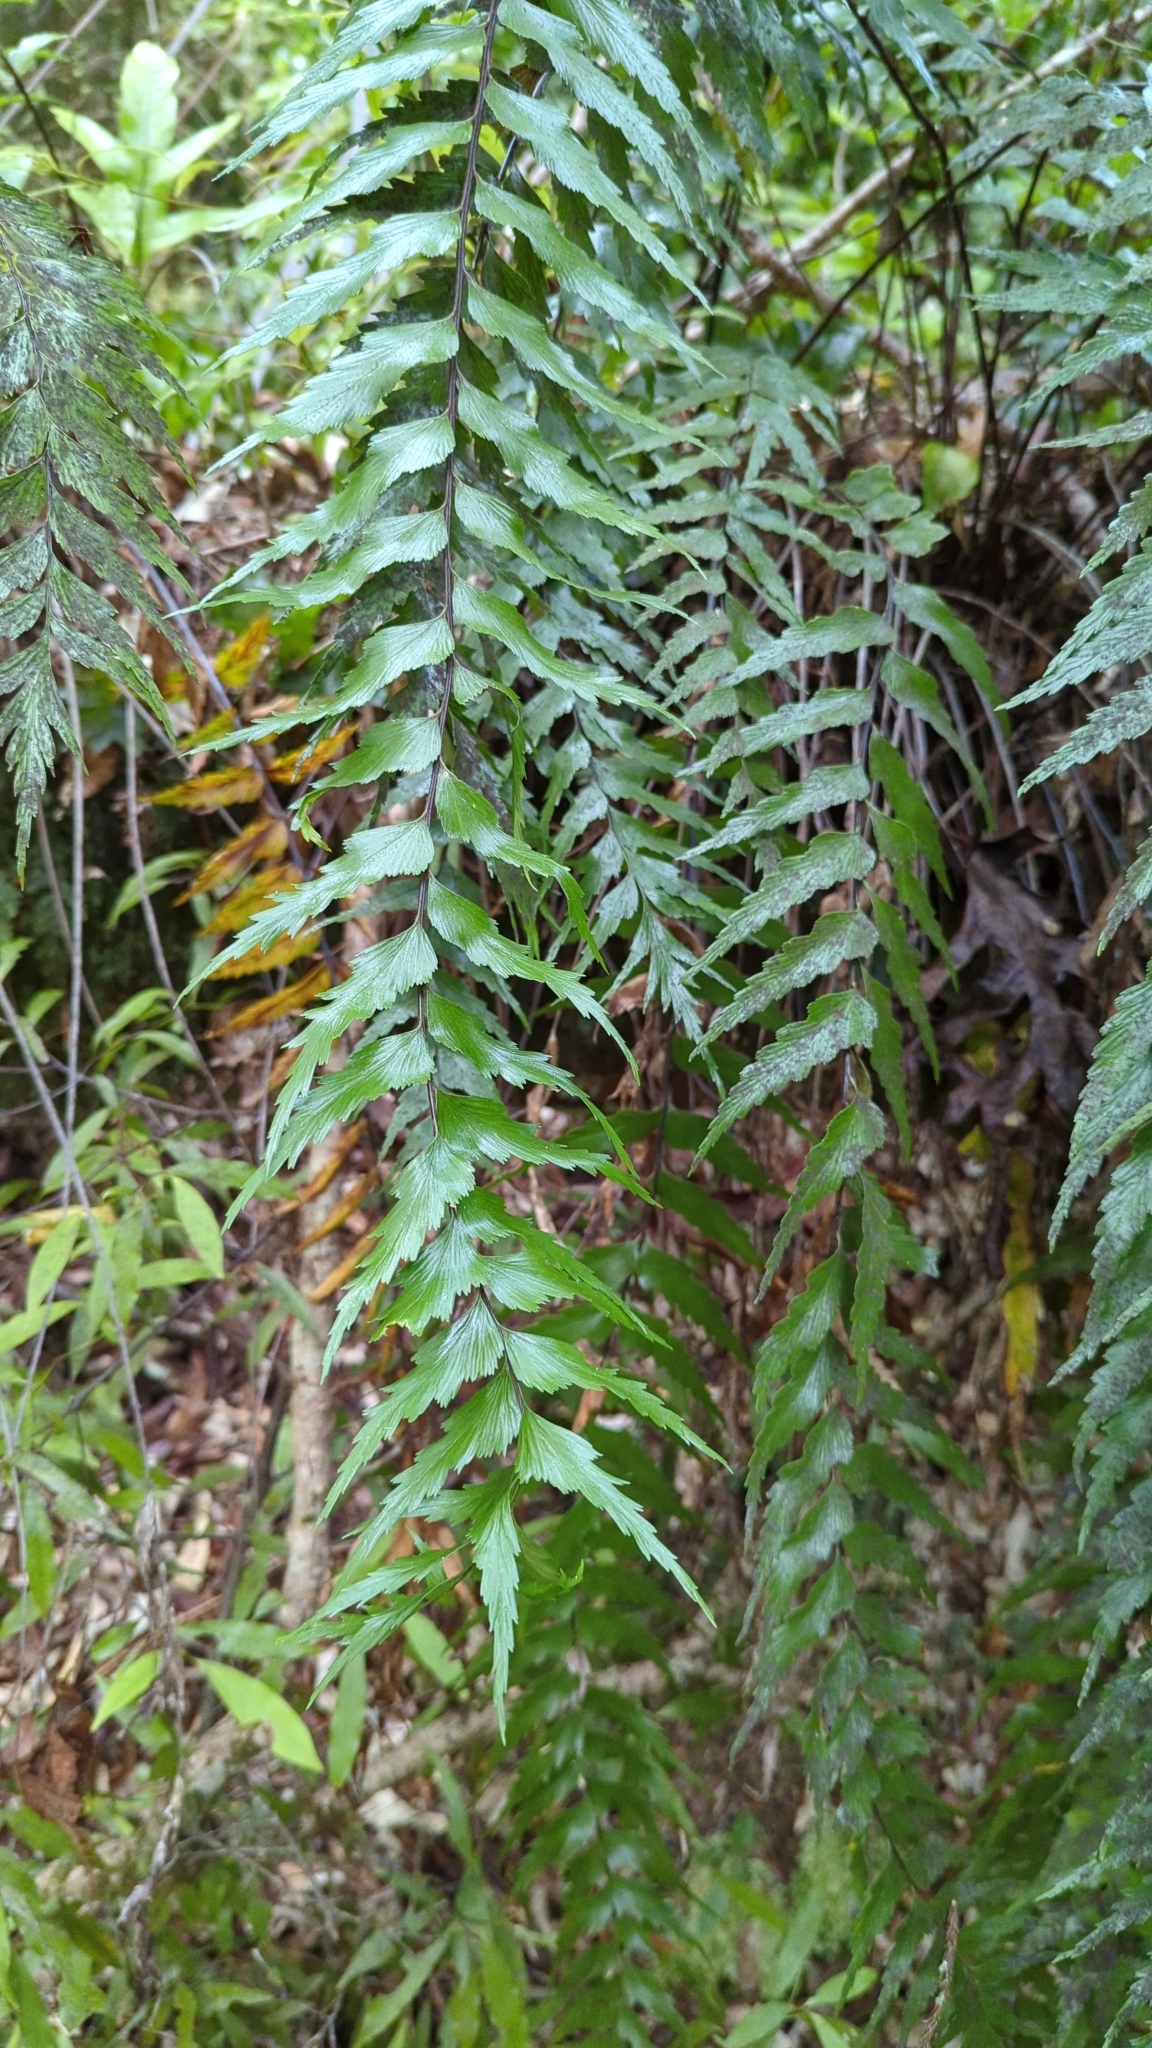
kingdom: Plantae
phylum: Tracheophyta
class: Polypodiopsida
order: Polypodiales
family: Aspleniaceae
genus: Asplenium
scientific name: Asplenium polyodon
